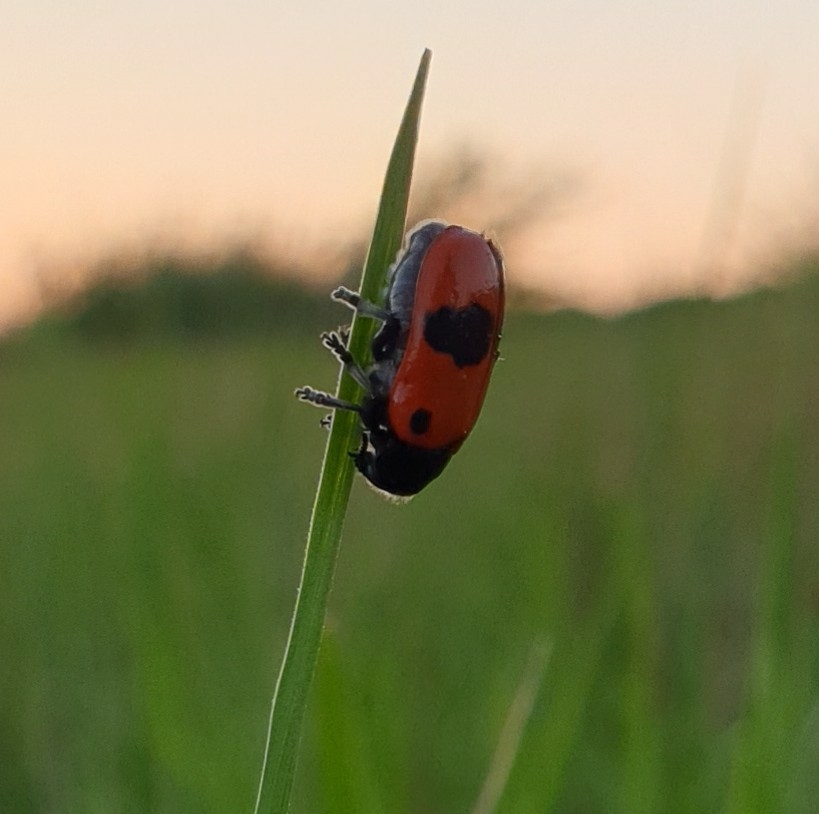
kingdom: Animalia
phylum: Arthropoda
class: Insecta
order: Coleoptera
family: Chrysomelidae
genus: Clytra
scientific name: Clytra laeviuscula
